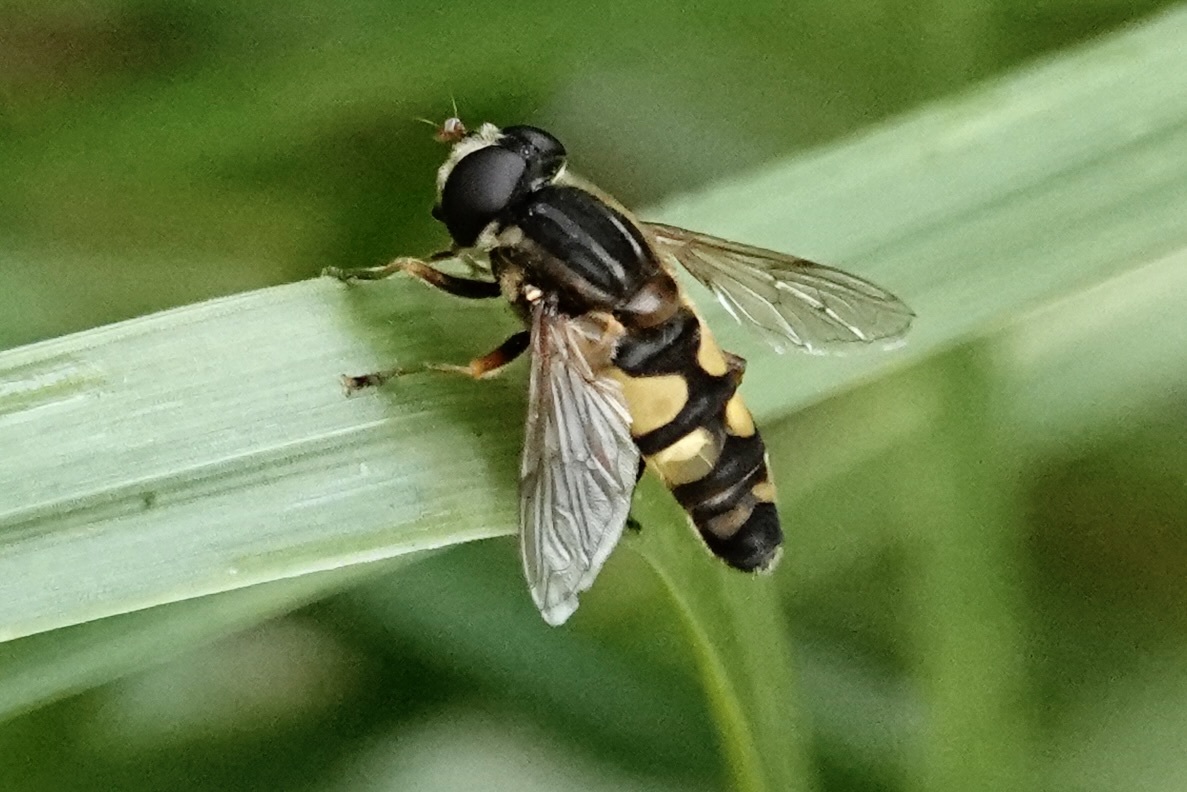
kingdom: Animalia
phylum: Arthropoda
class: Insecta
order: Diptera
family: Syrphidae
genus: Helophilus
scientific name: Helophilus fasciatus
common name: Narrow-headed marsh fly
